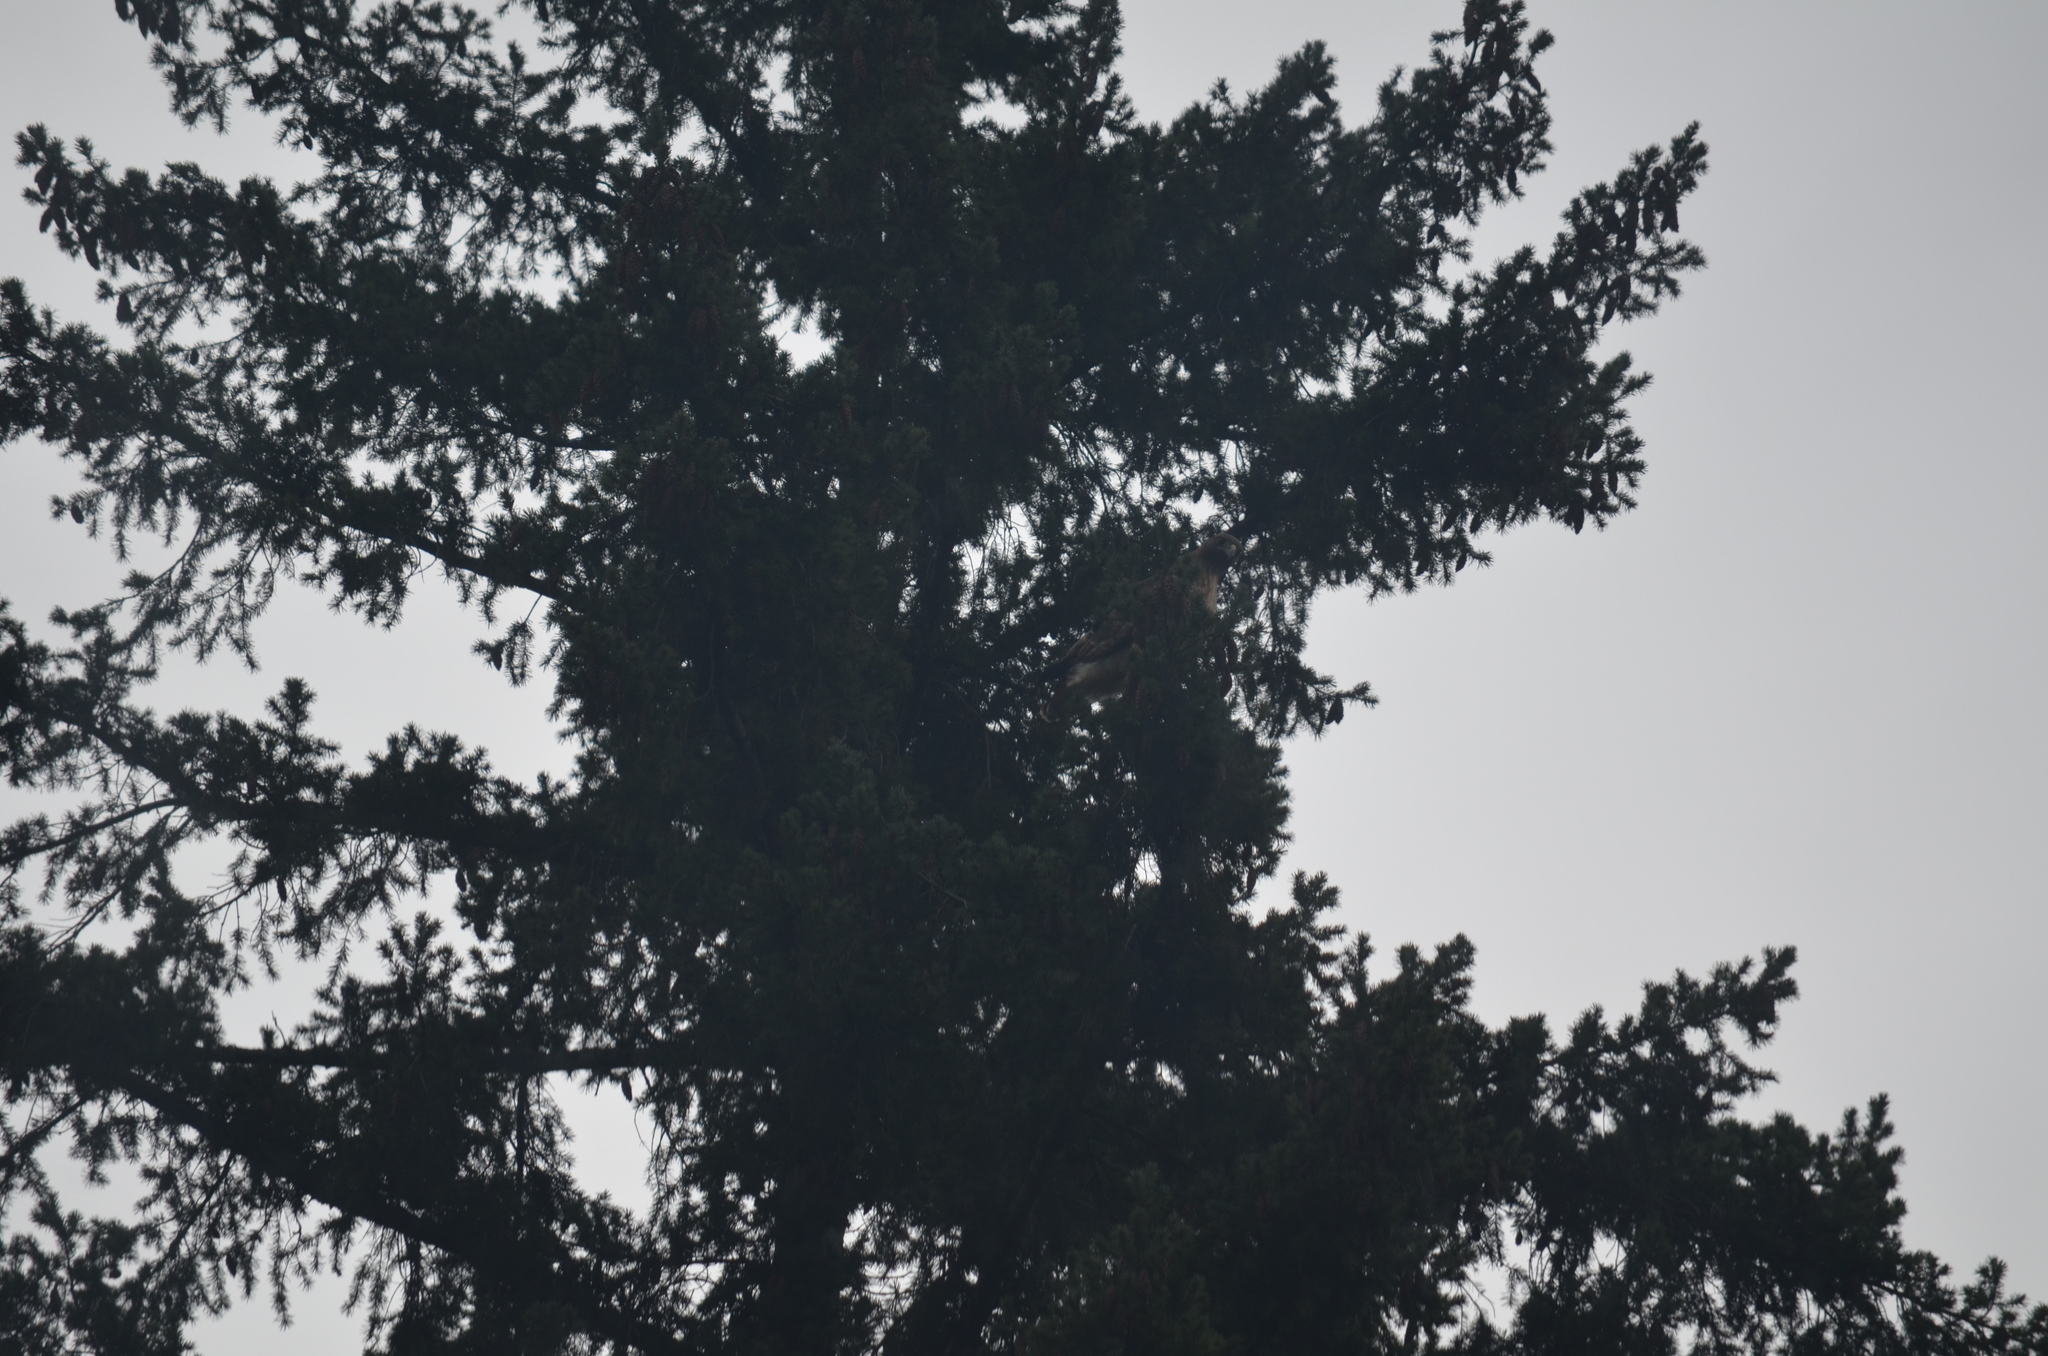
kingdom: Animalia
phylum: Chordata
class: Aves
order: Accipitriformes
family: Accipitridae
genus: Buteo
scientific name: Buteo jamaicensis
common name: Red-tailed hawk
